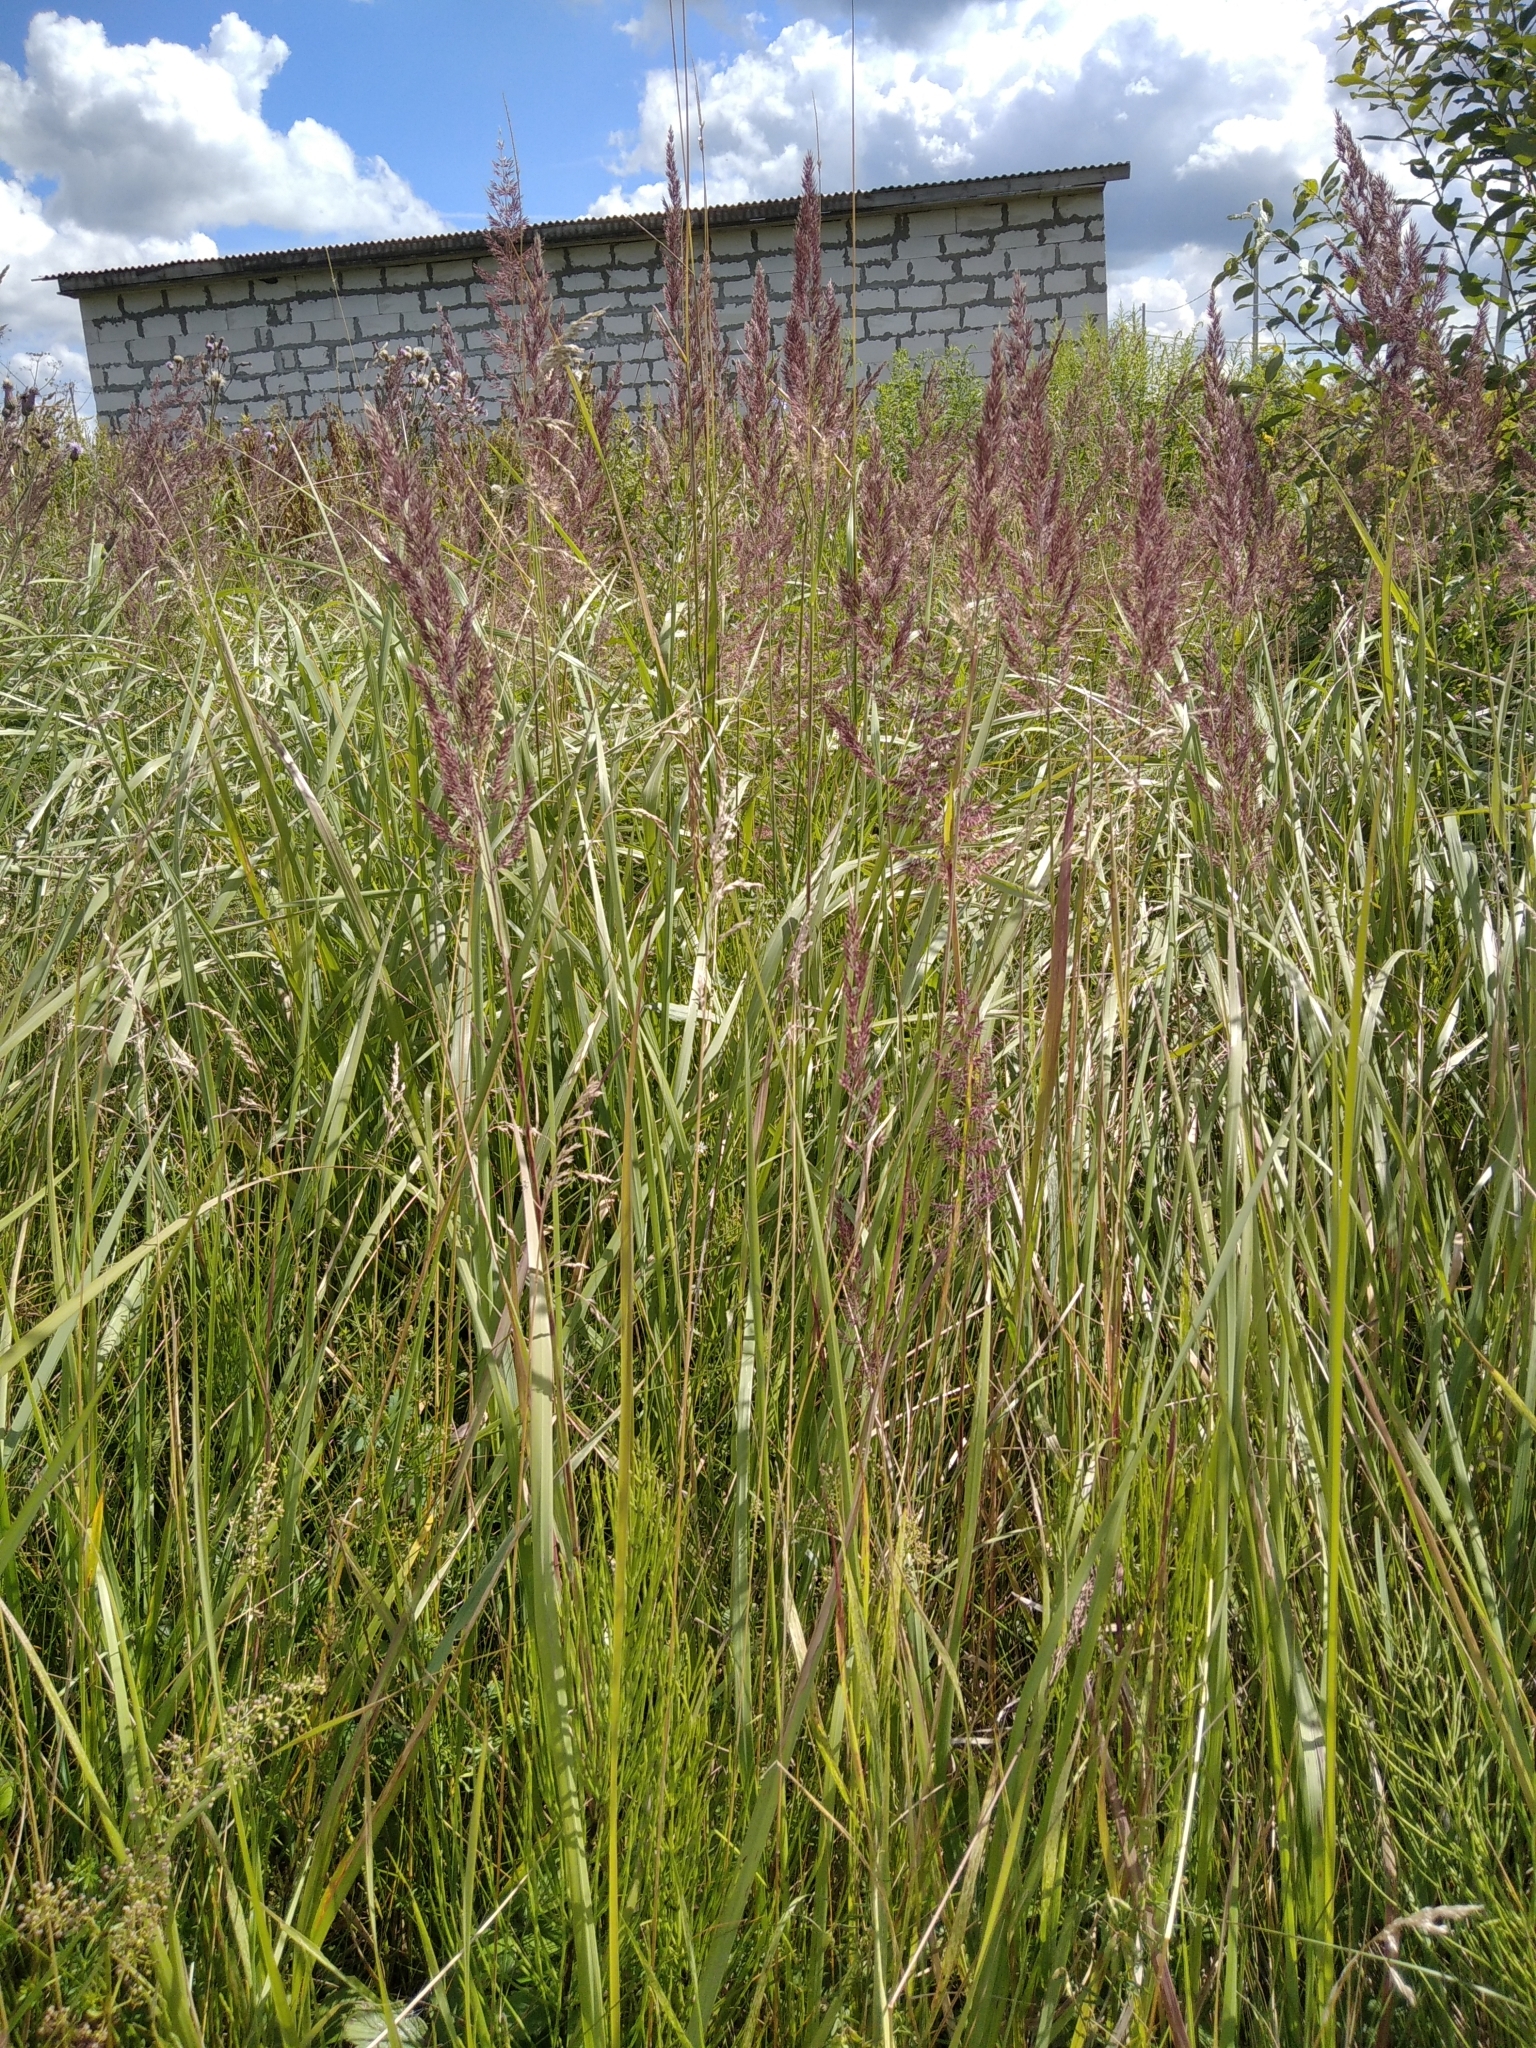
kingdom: Plantae
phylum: Tracheophyta
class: Liliopsida
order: Poales
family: Poaceae
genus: Calamagrostis
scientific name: Calamagrostis epigejos
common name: Wood small-reed
